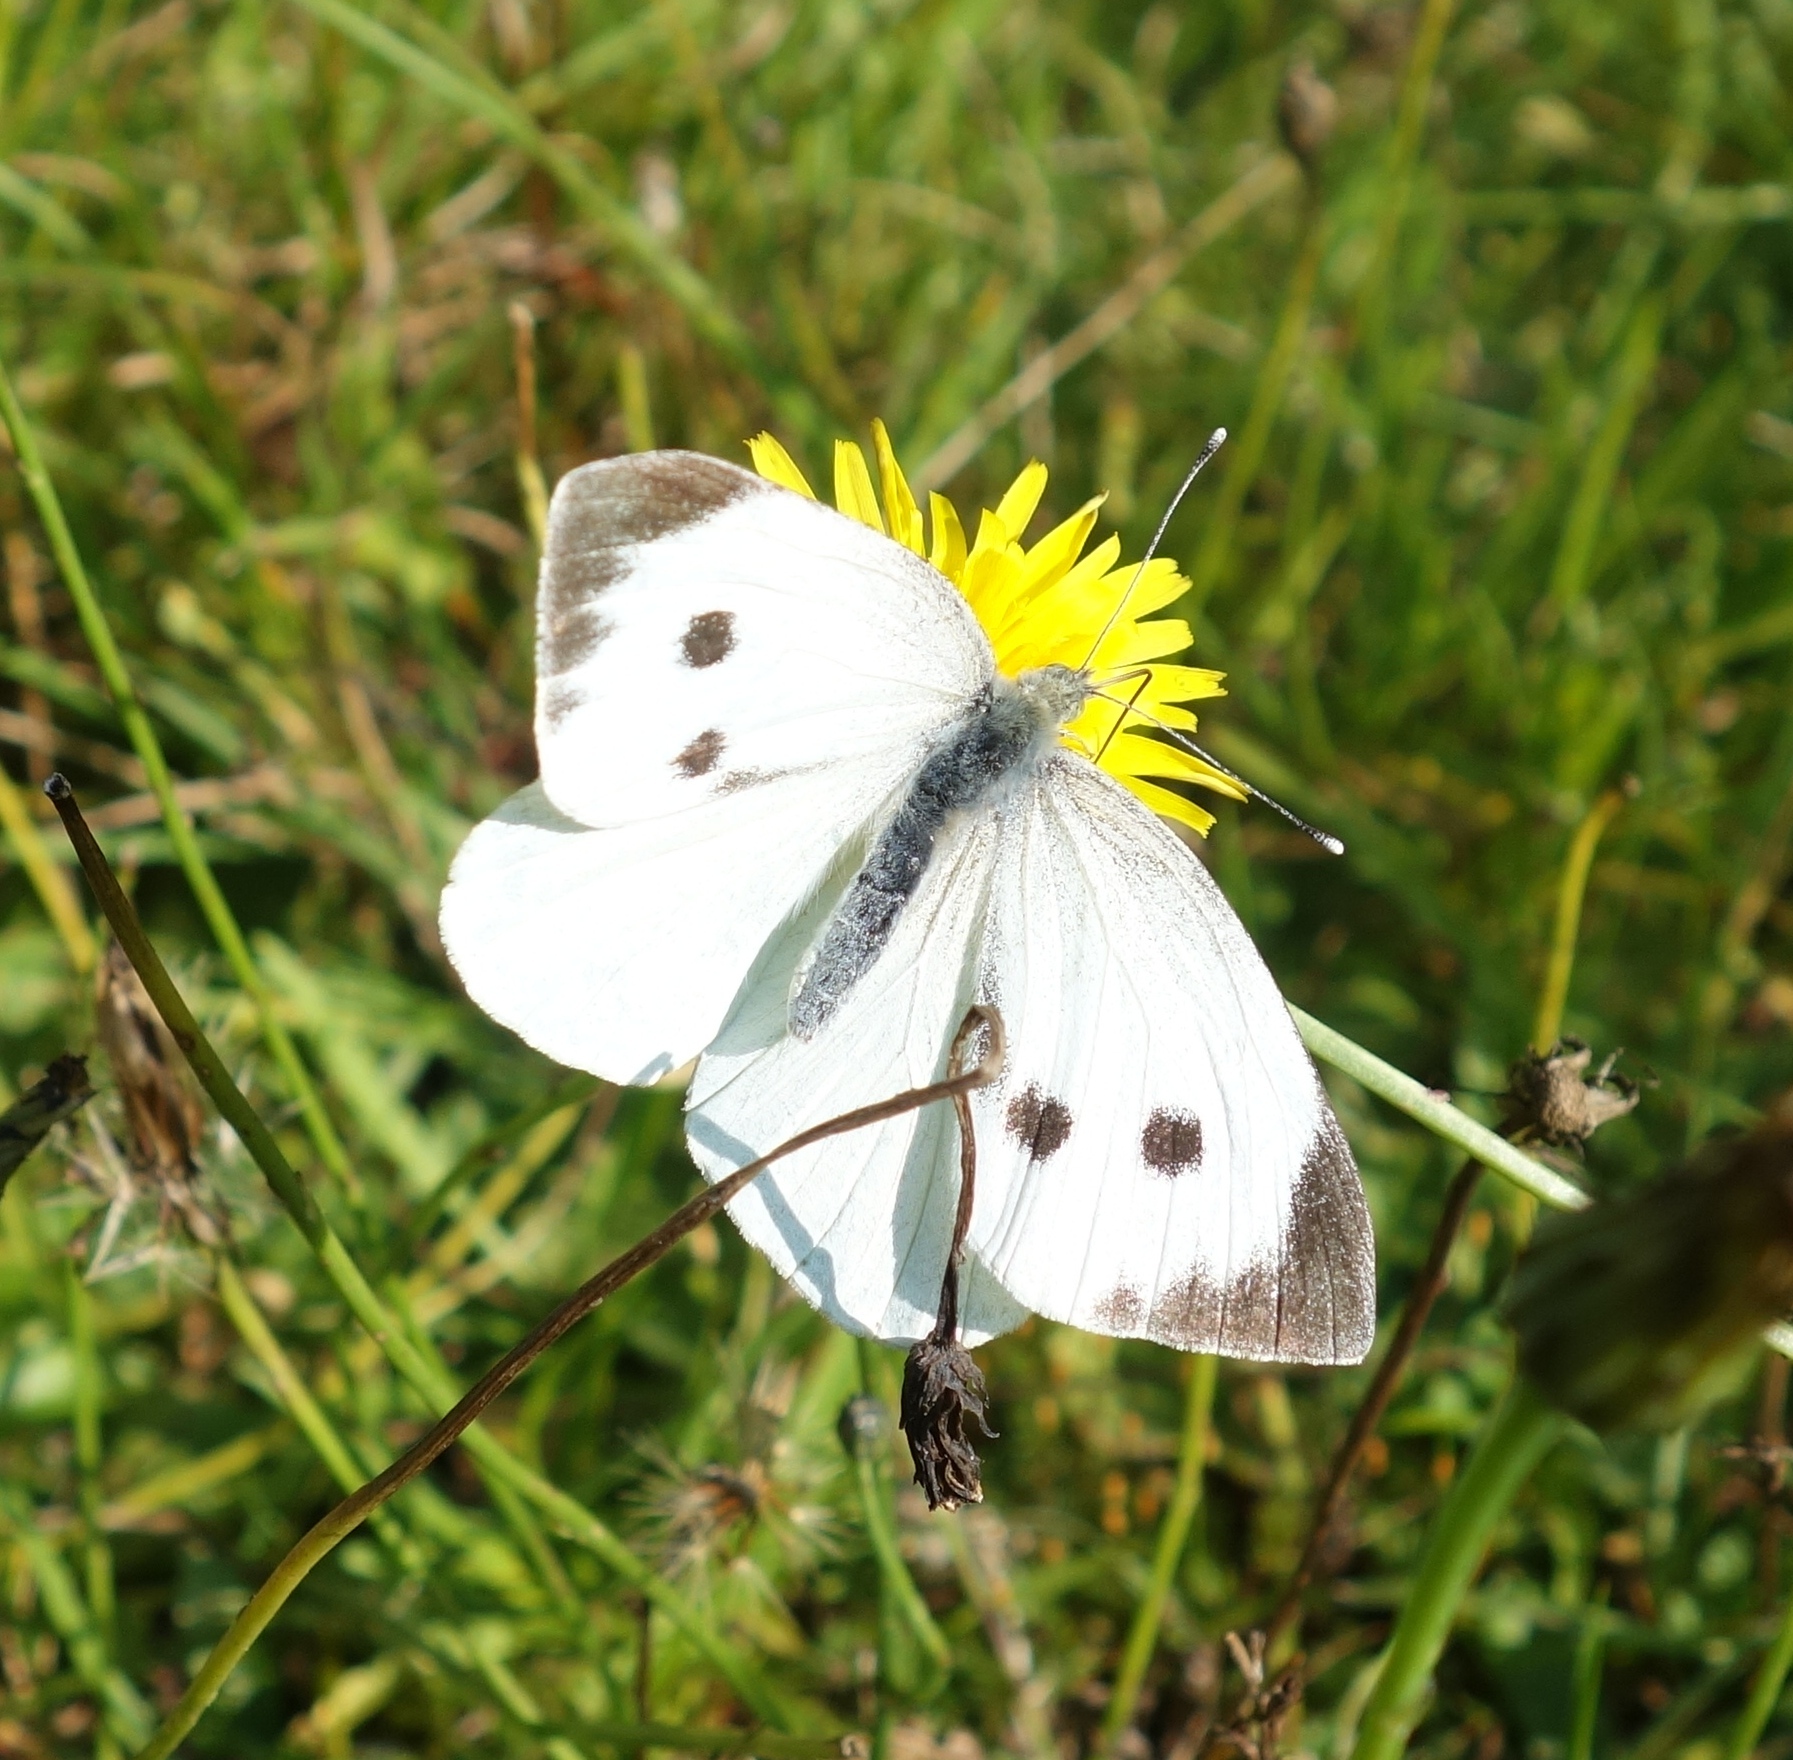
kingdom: Animalia
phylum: Arthropoda
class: Insecta
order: Lepidoptera
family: Pieridae
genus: Pieris
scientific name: Pieris brassicae
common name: Large white
